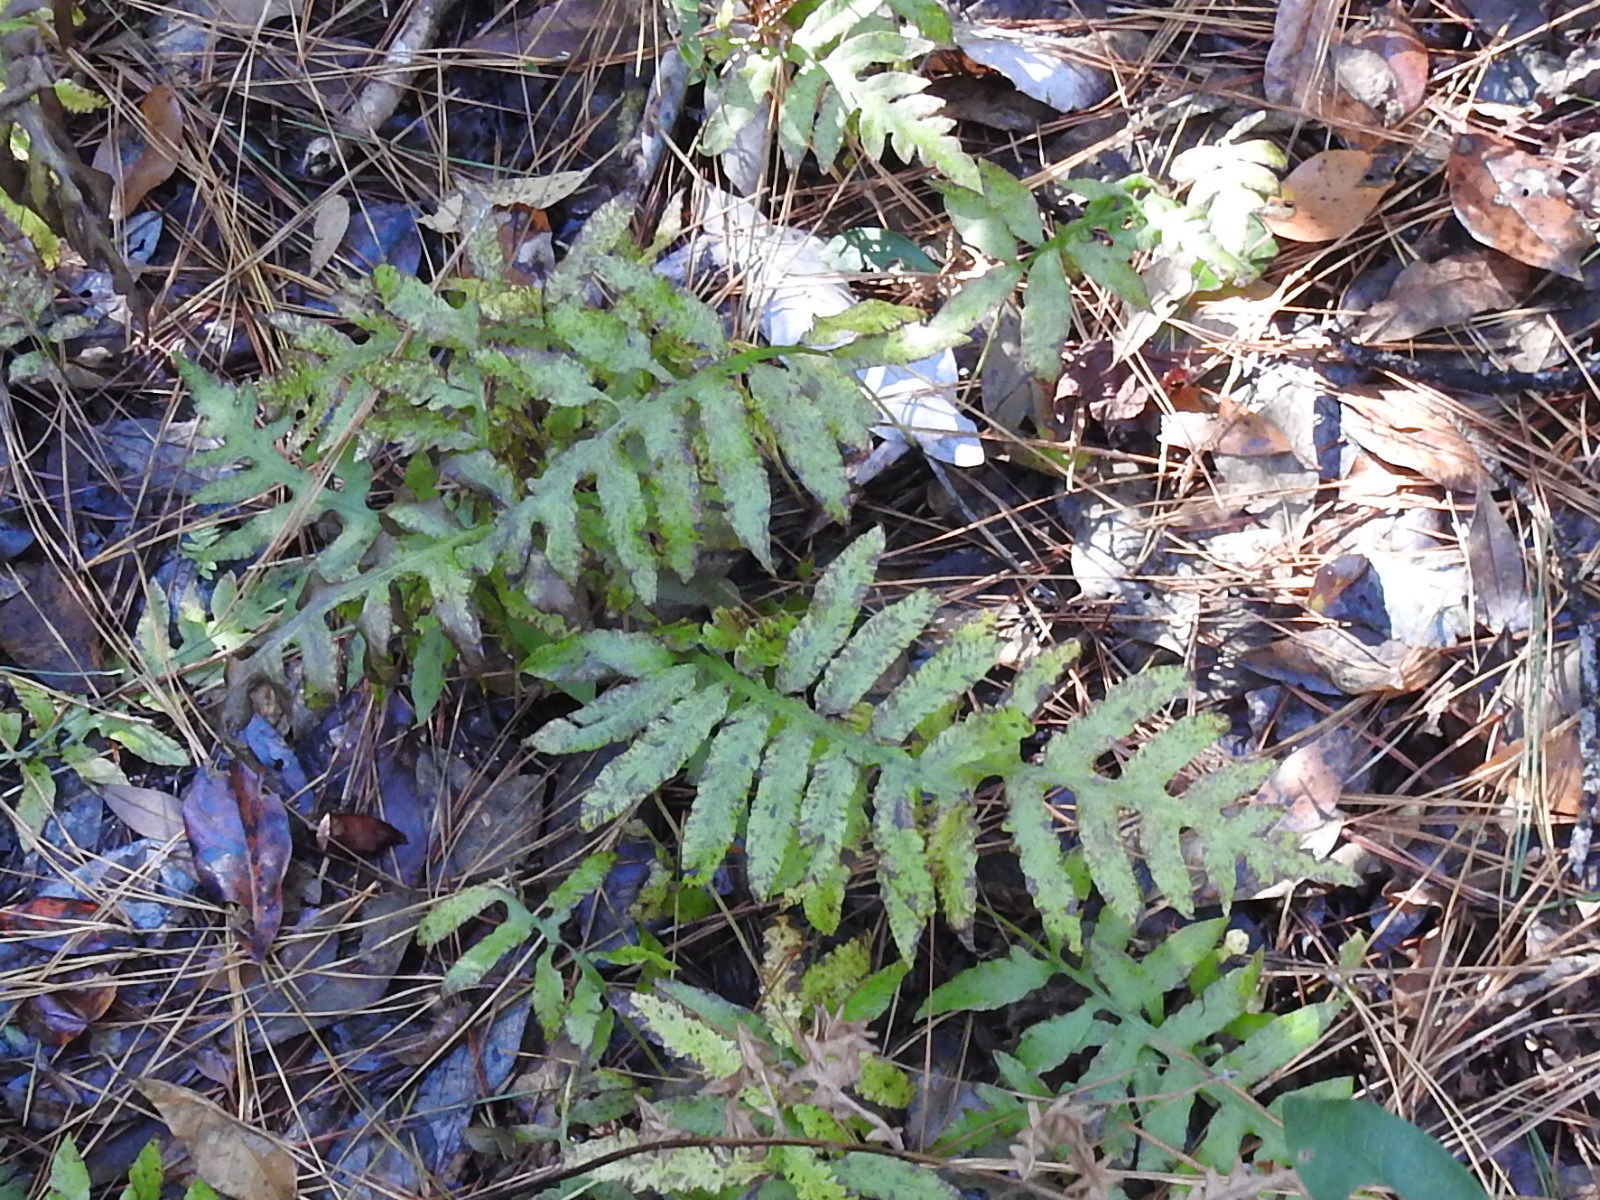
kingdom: Plantae
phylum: Tracheophyta
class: Polypodiopsida
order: Polypodiales
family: Blechnaceae
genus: Lorinseria
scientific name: Lorinseria areolata
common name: Dwarf chain fern
